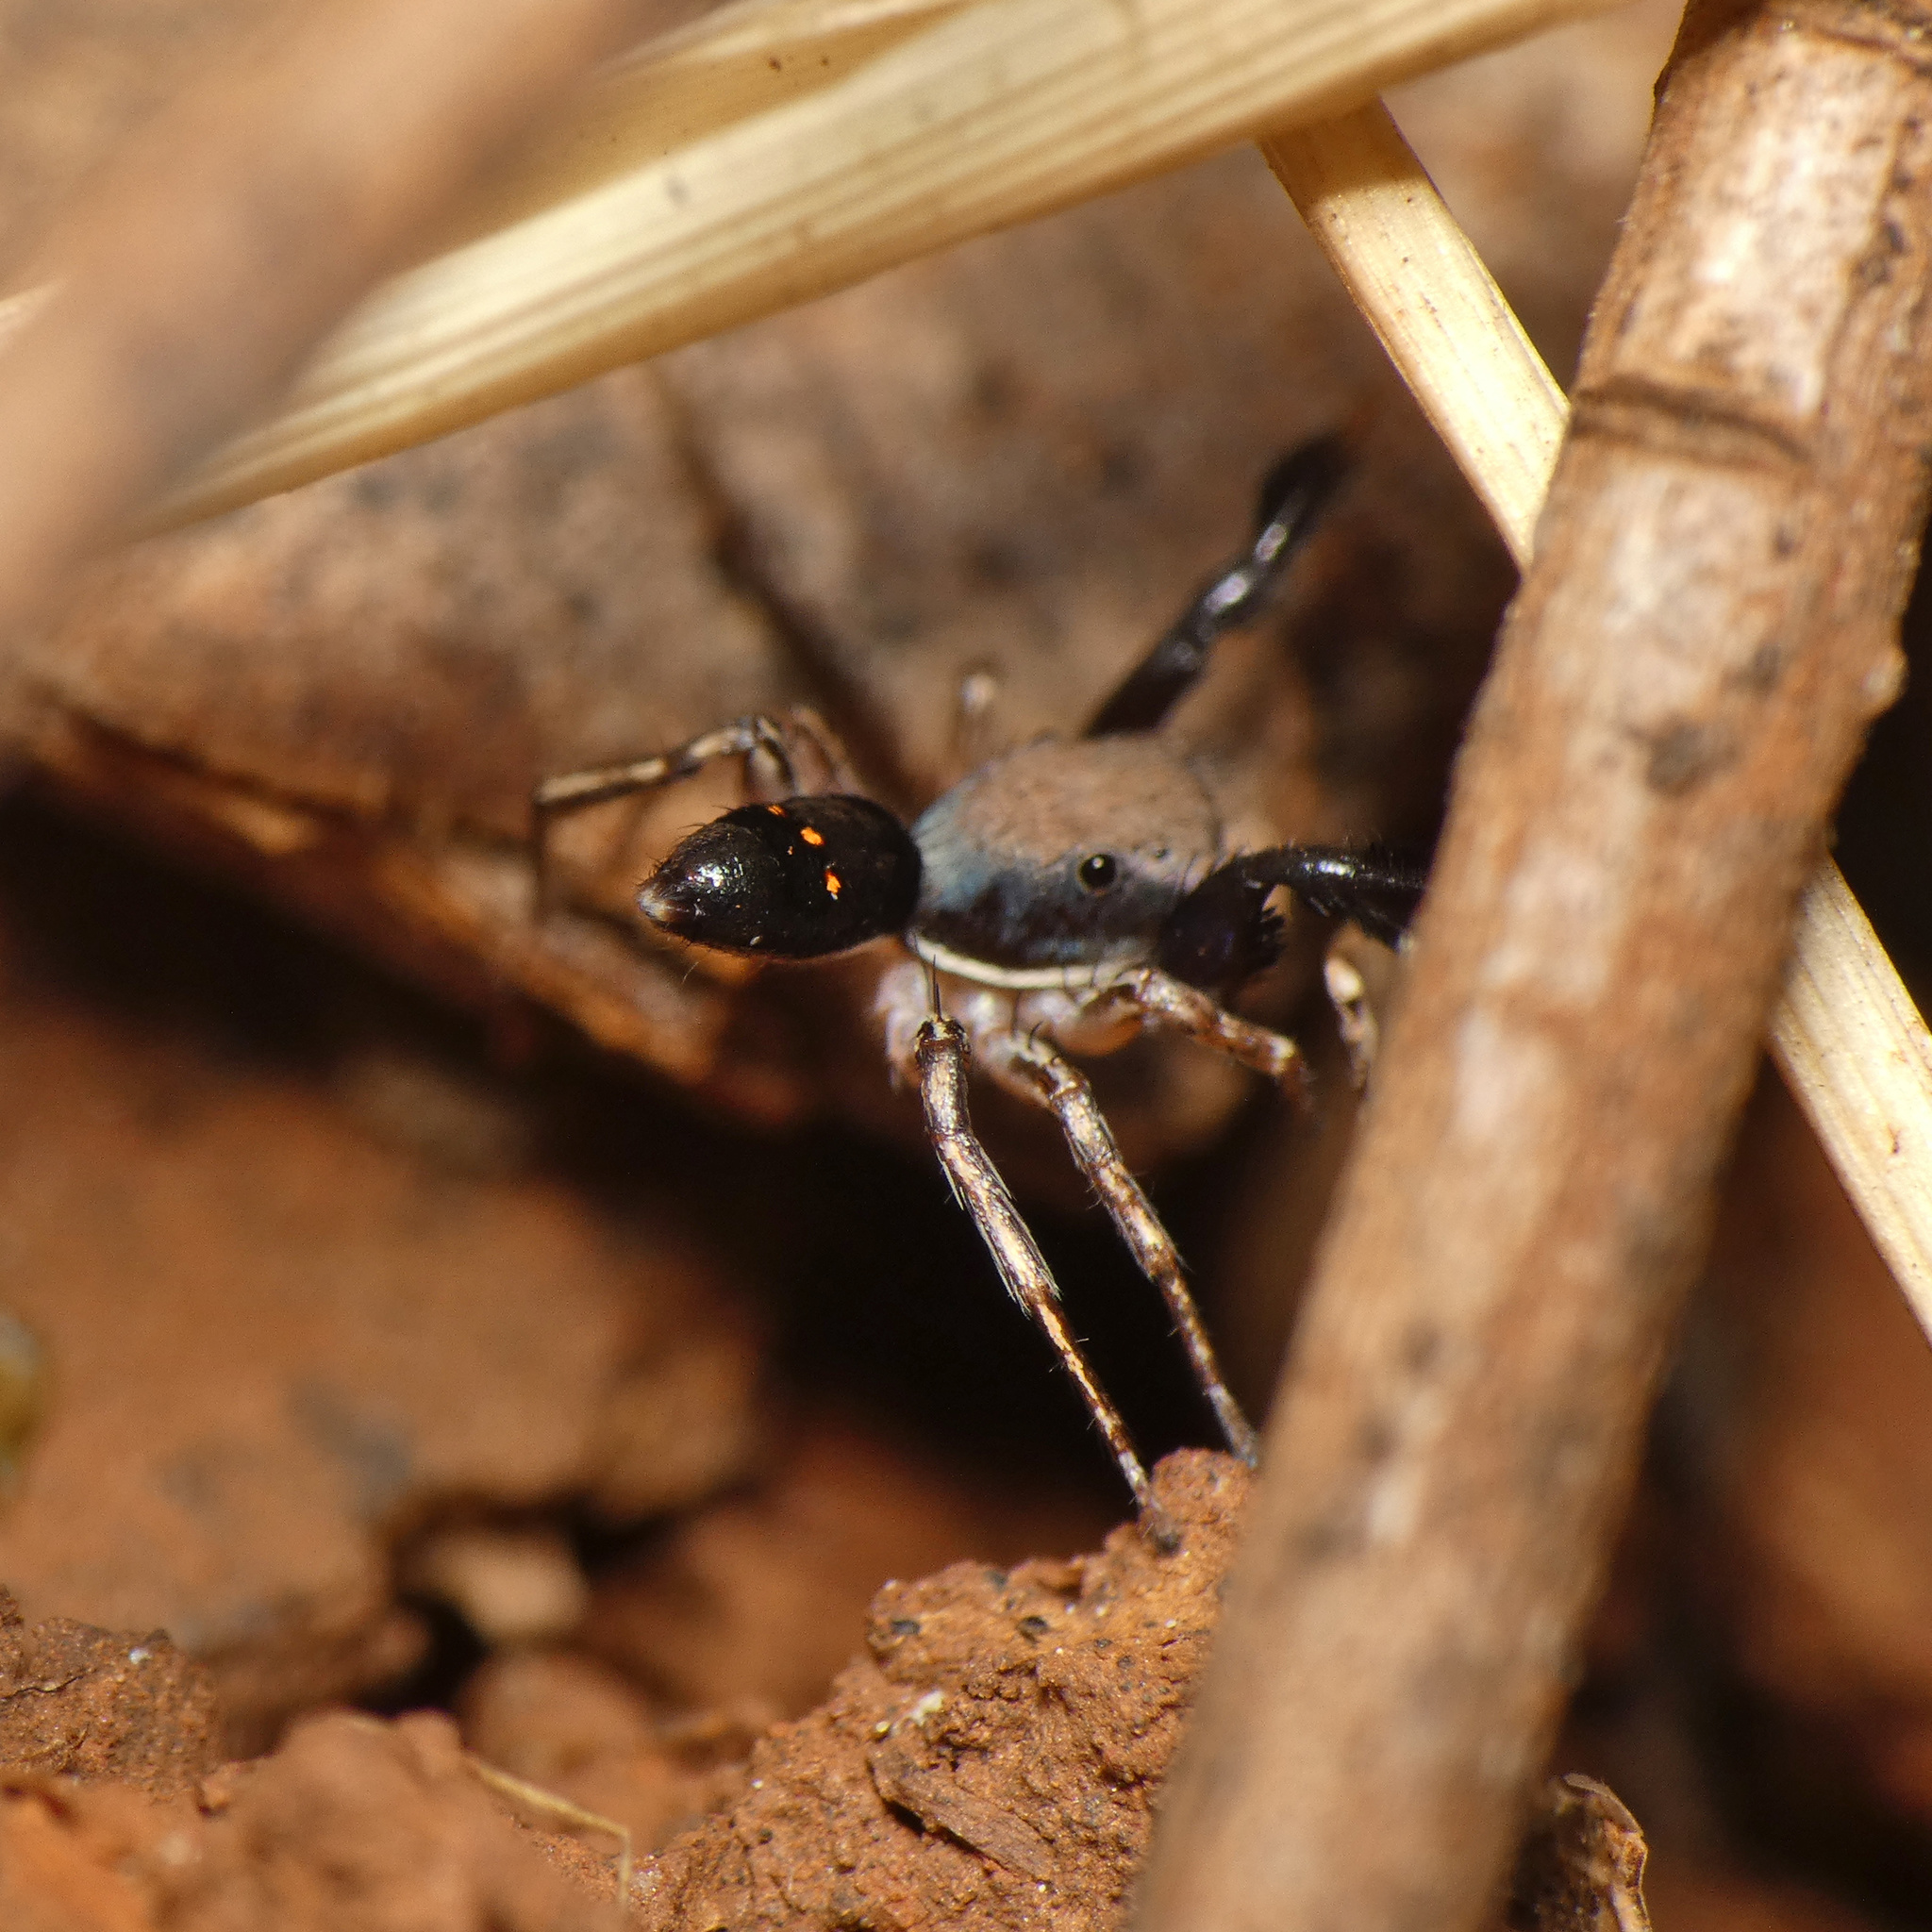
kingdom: Animalia
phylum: Arthropoda
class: Arachnida
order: Araneae
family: Salticidae
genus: Natta
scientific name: Natta horizontalis
